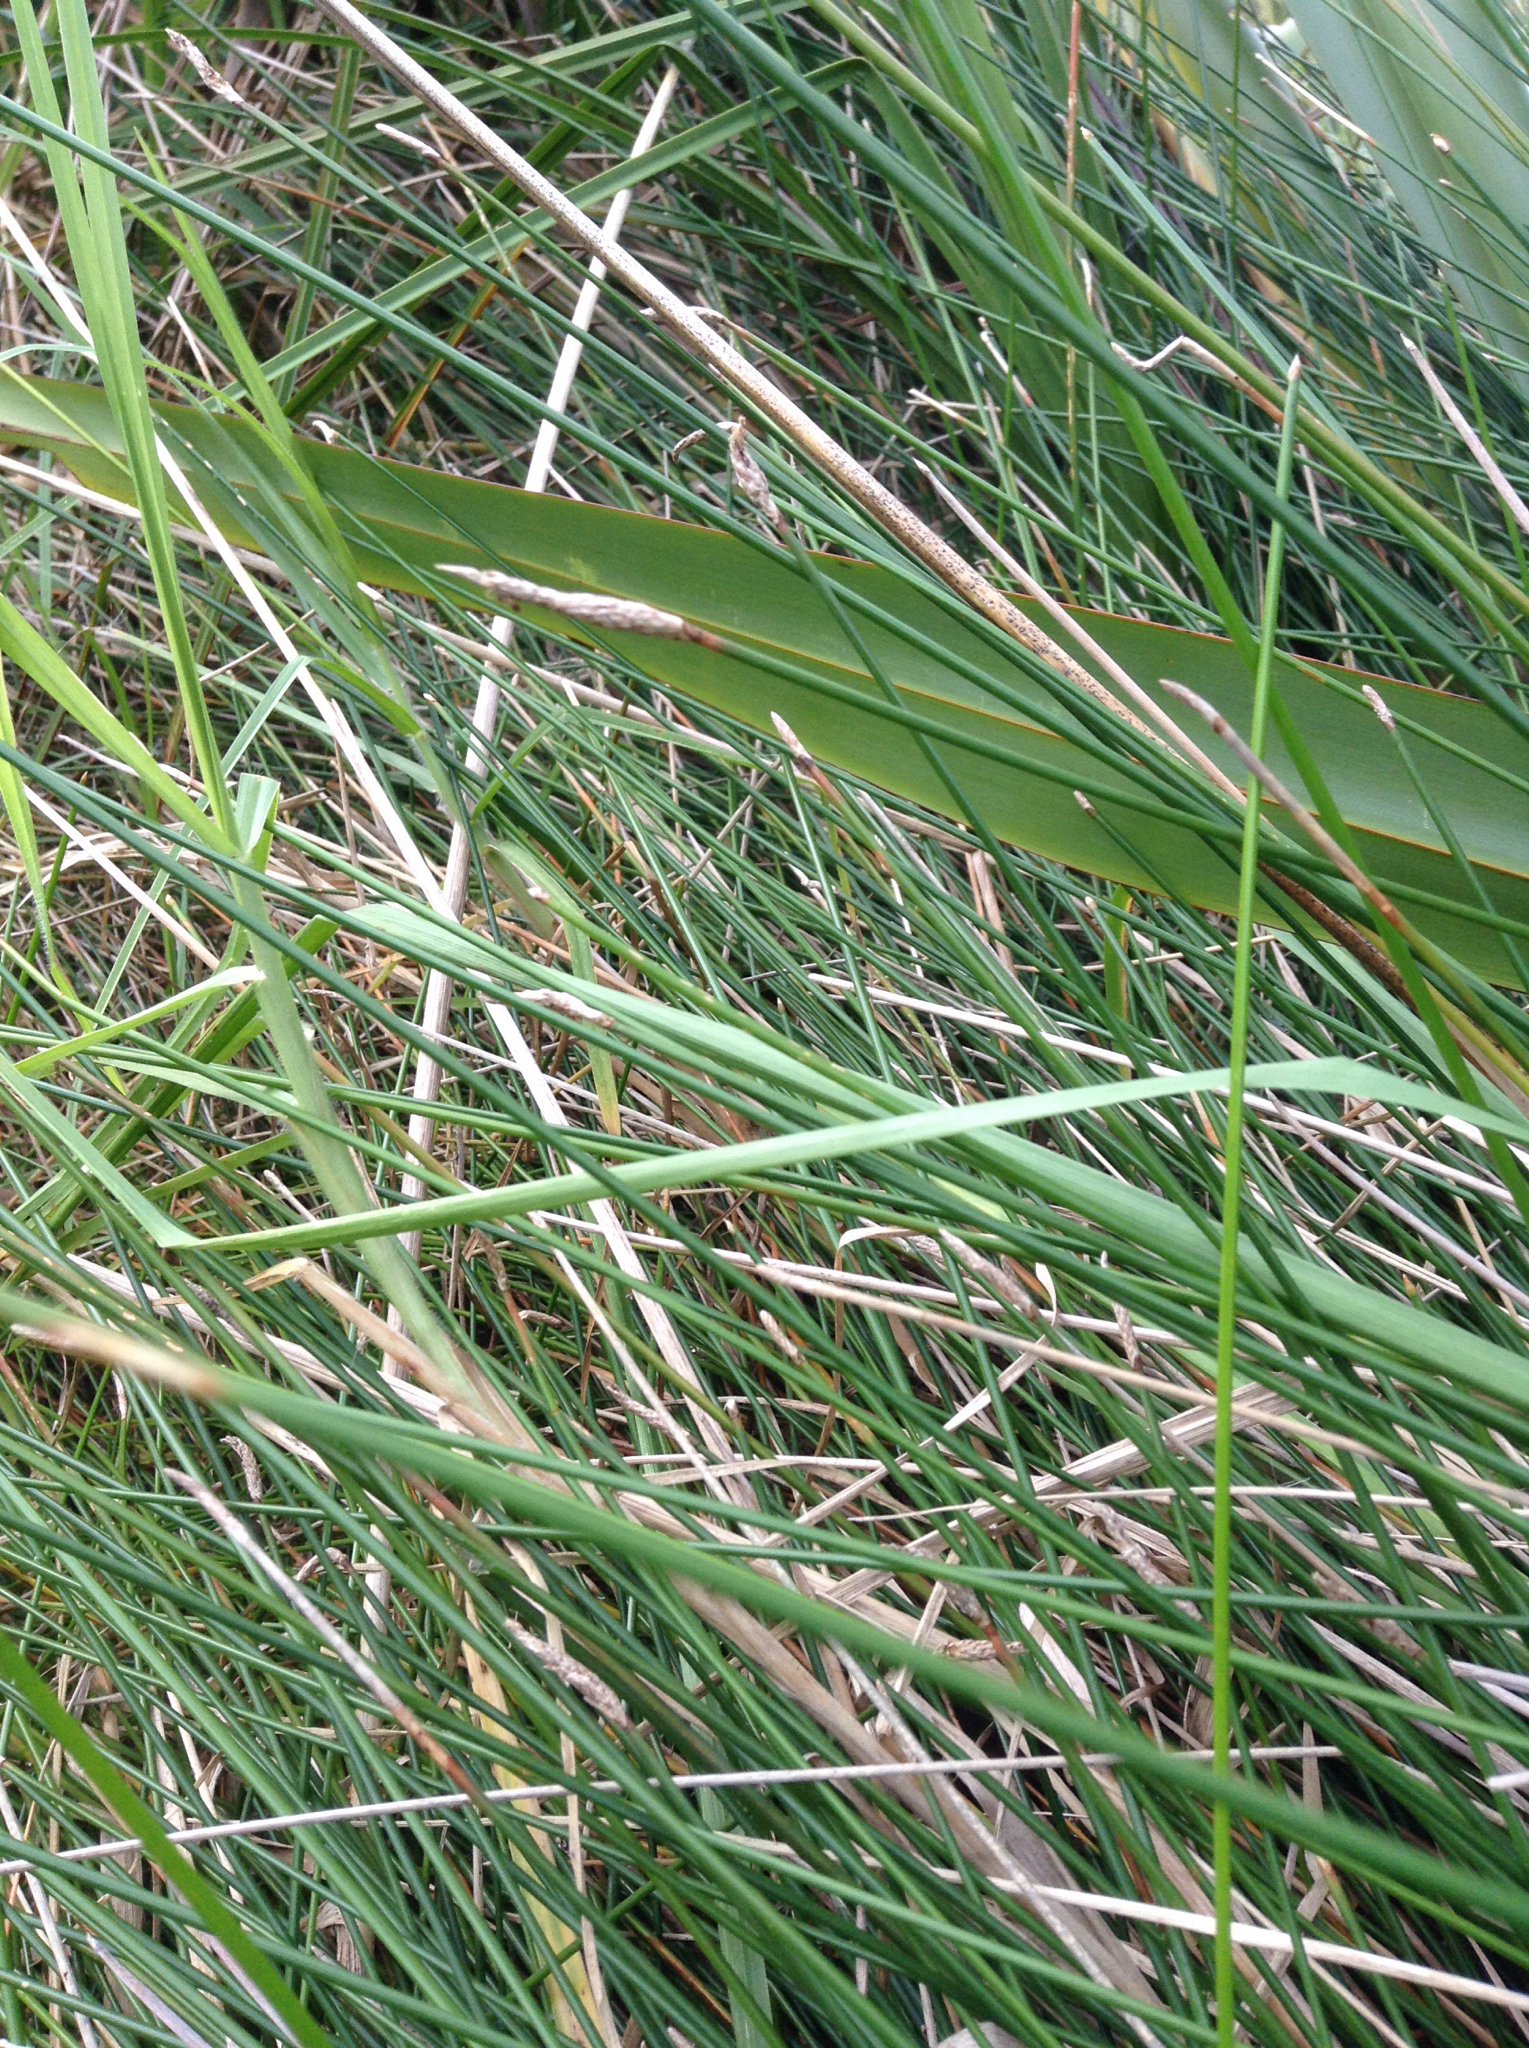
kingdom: Plantae
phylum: Tracheophyta
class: Liliopsida
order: Poales
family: Cyperaceae
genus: Eleocharis
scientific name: Eleocharis acuta
